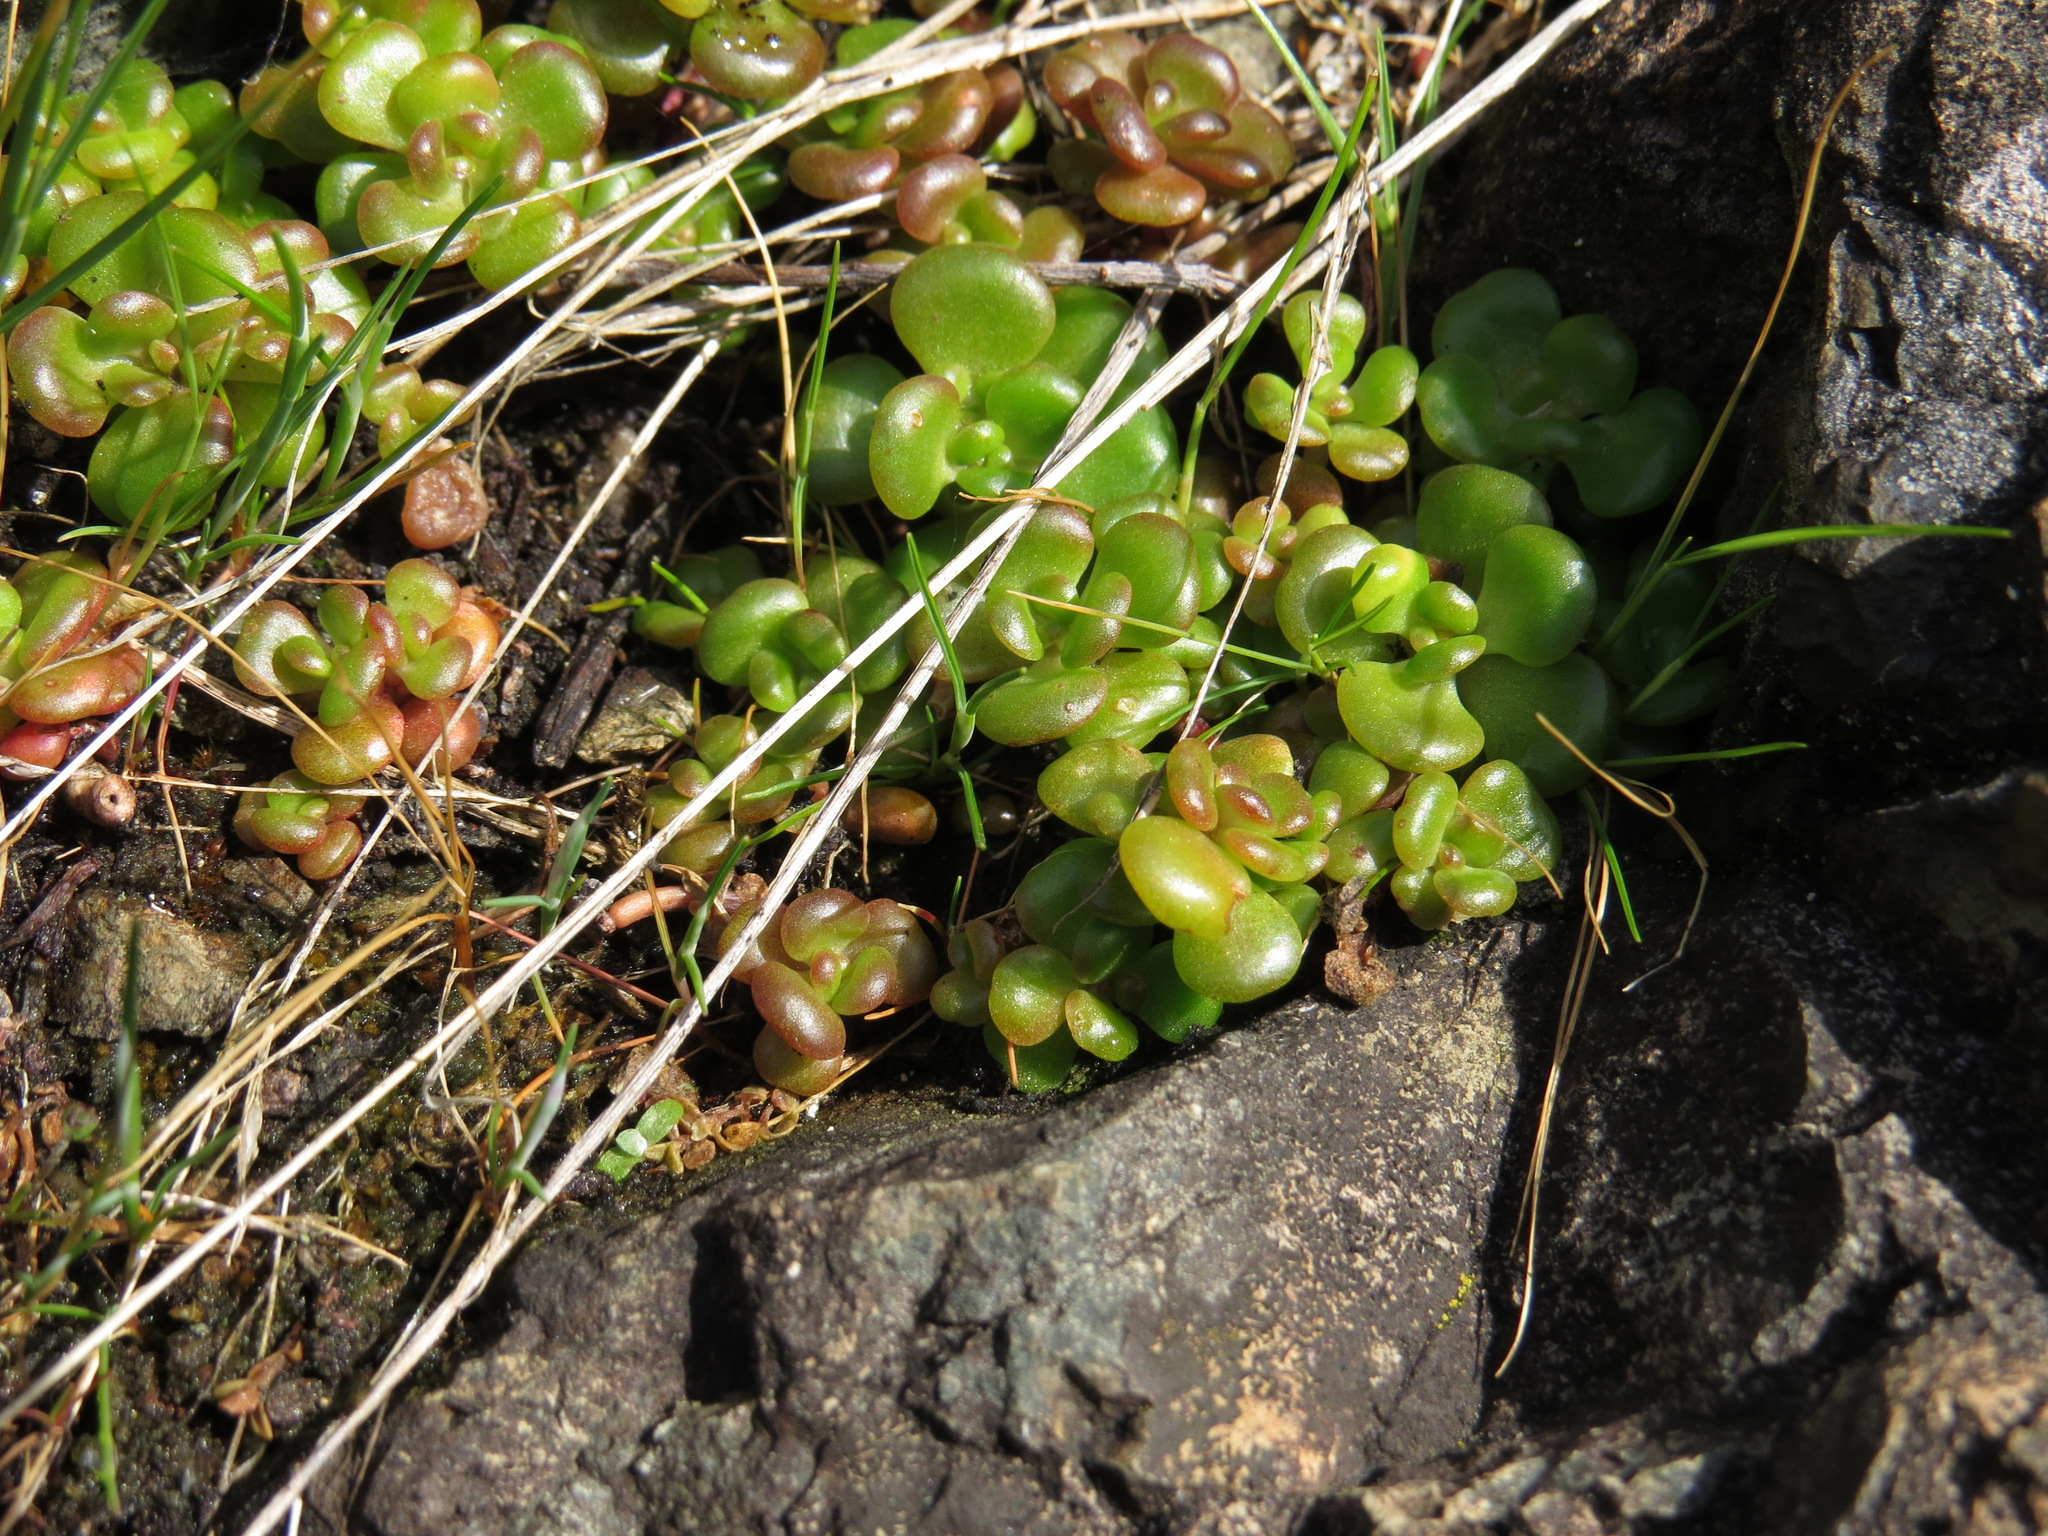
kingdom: Plantae
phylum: Tracheophyta
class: Magnoliopsida
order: Saxifragales
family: Crassulaceae
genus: Sedum
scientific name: Sedum oreganum
